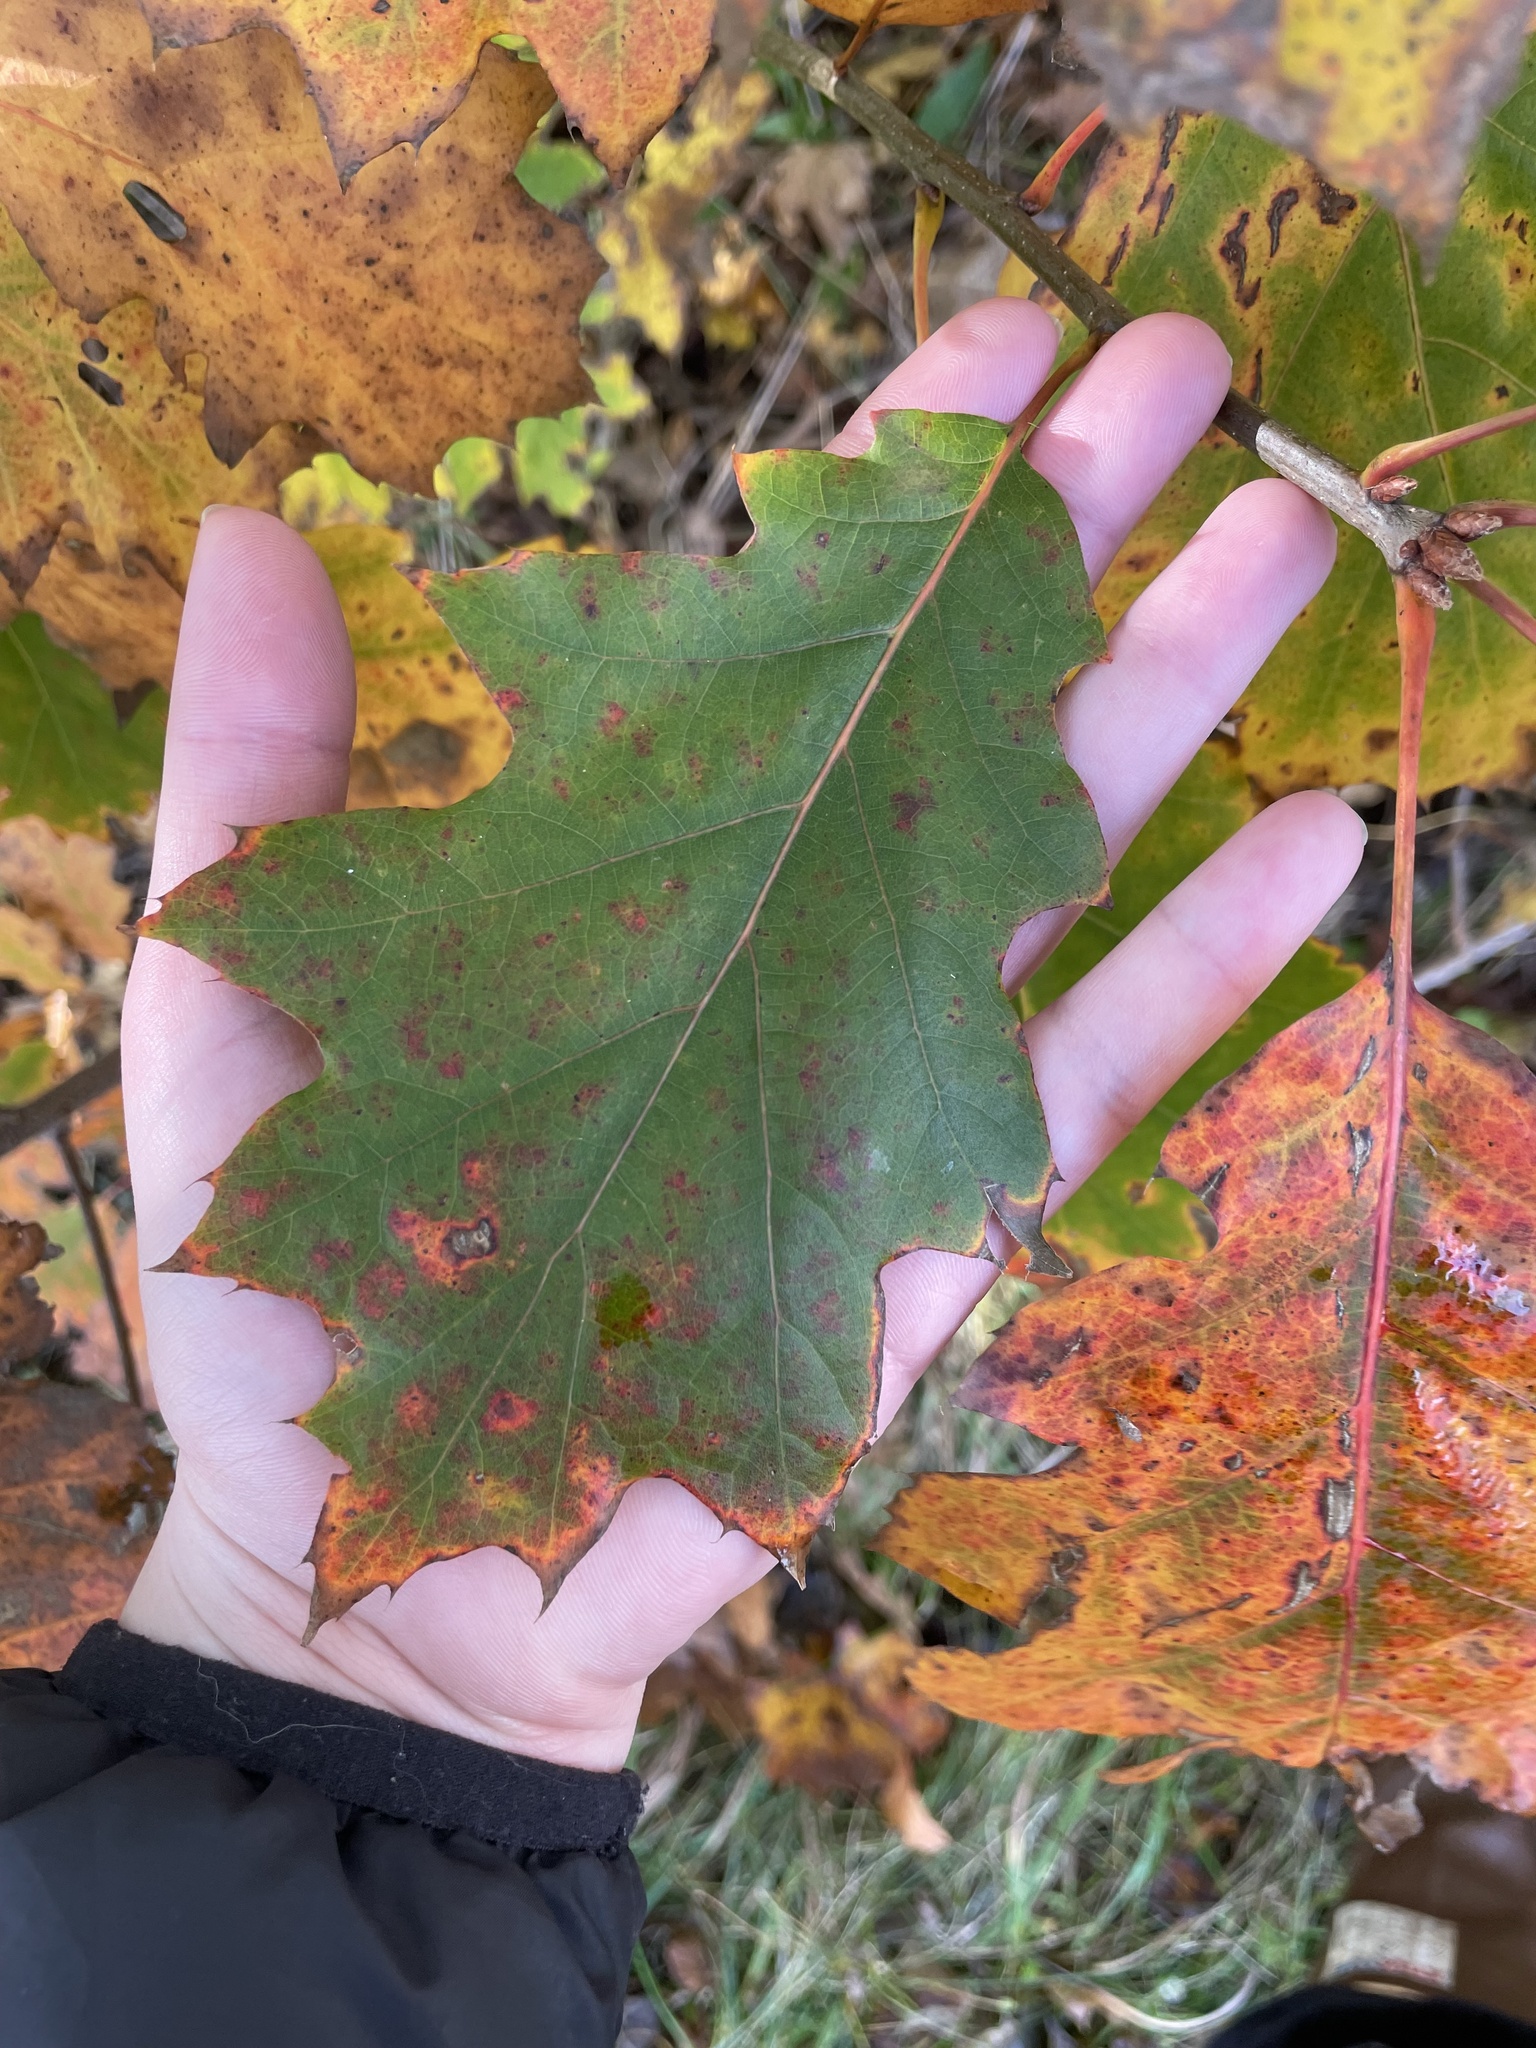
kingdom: Plantae
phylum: Tracheophyta
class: Magnoliopsida
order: Fagales
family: Fagaceae
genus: Quercus
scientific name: Quercus rubra
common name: Red oak
